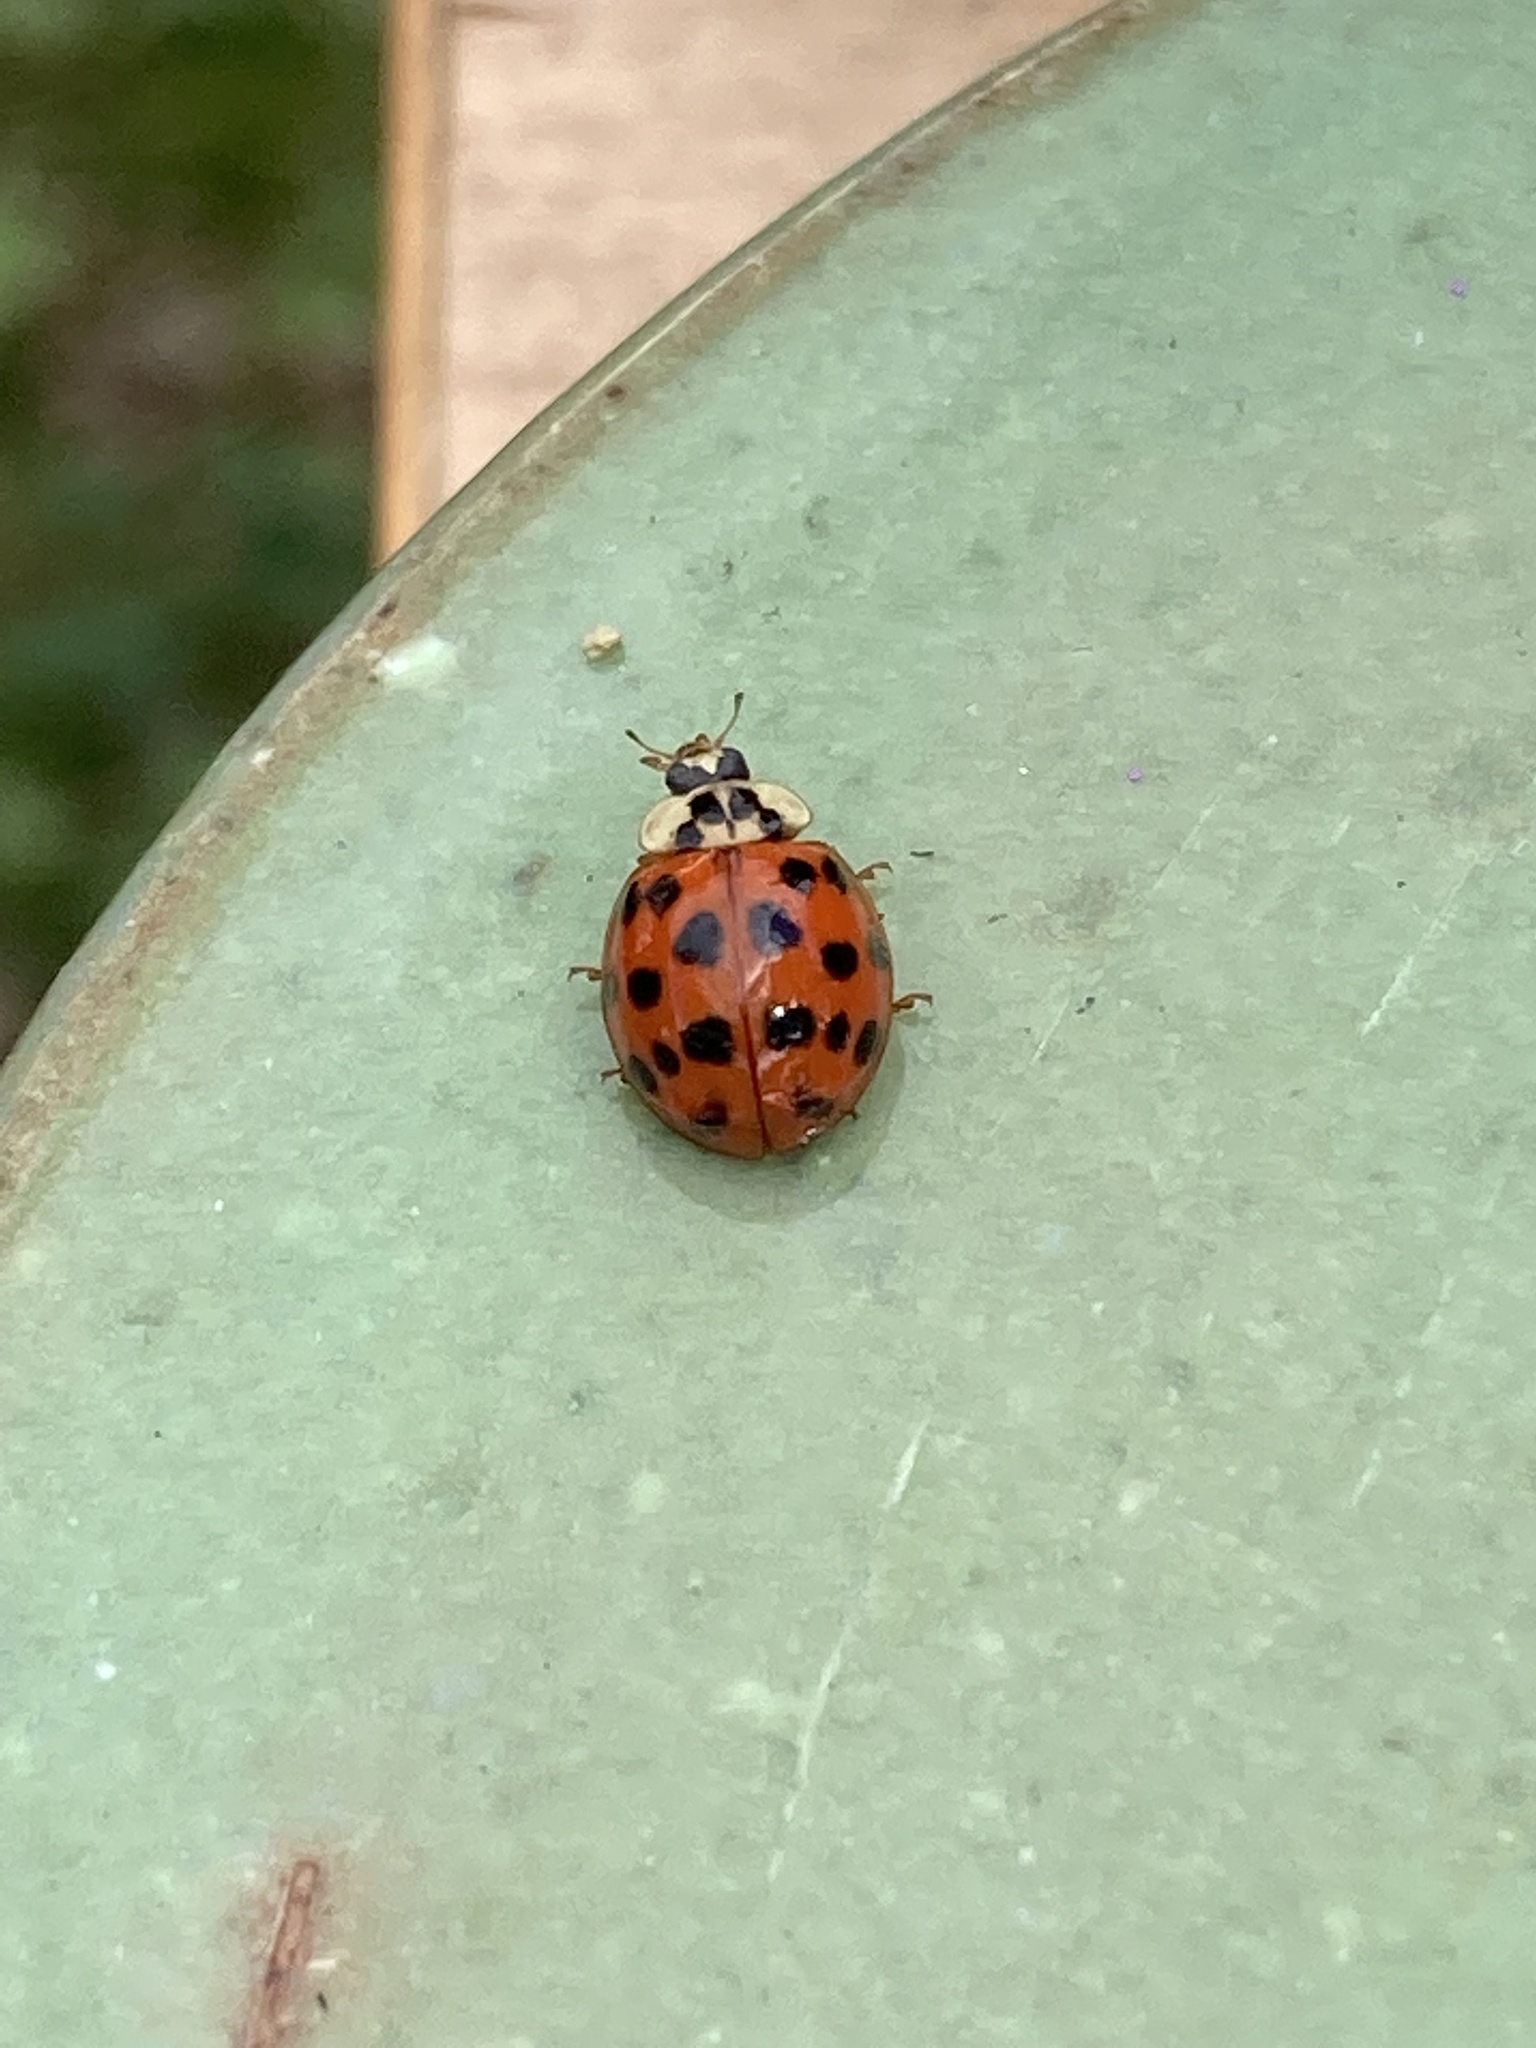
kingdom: Animalia
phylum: Arthropoda
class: Insecta
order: Coleoptera
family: Coccinellidae
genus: Harmonia
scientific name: Harmonia axyridis
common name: Harlequin ladybird
